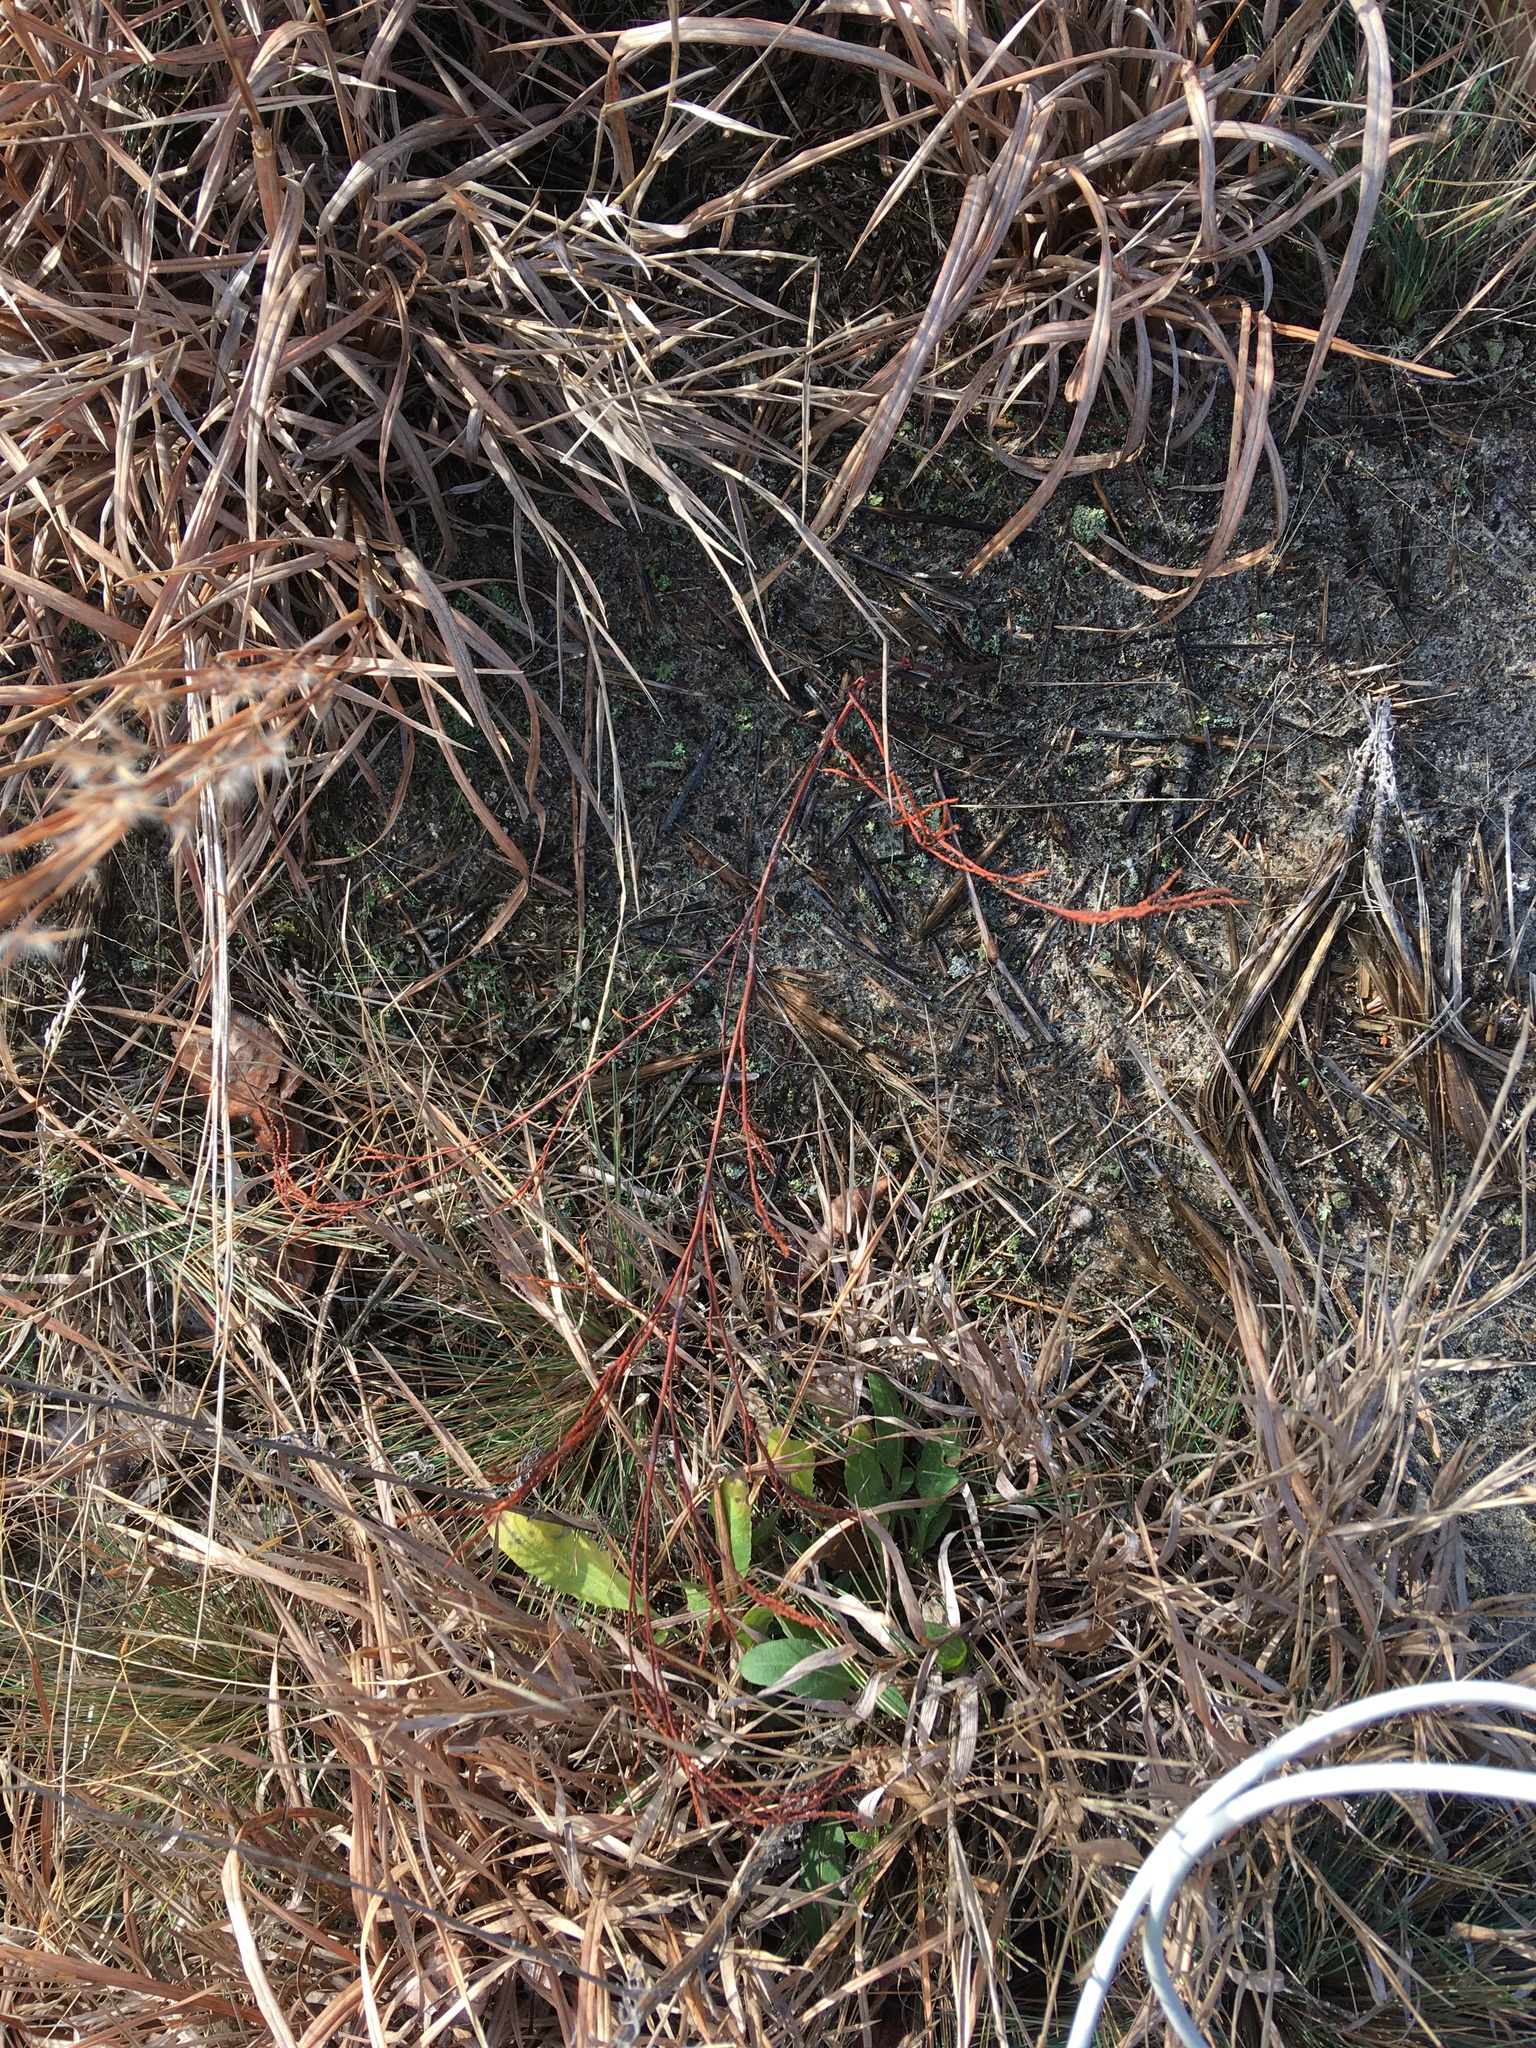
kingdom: Plantae
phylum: Tracheophyta
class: Magnoliopsida
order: Caryophyllales
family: Polygonaceae
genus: Polygonella
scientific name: Polygonella articulata
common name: Coastal jointweed
